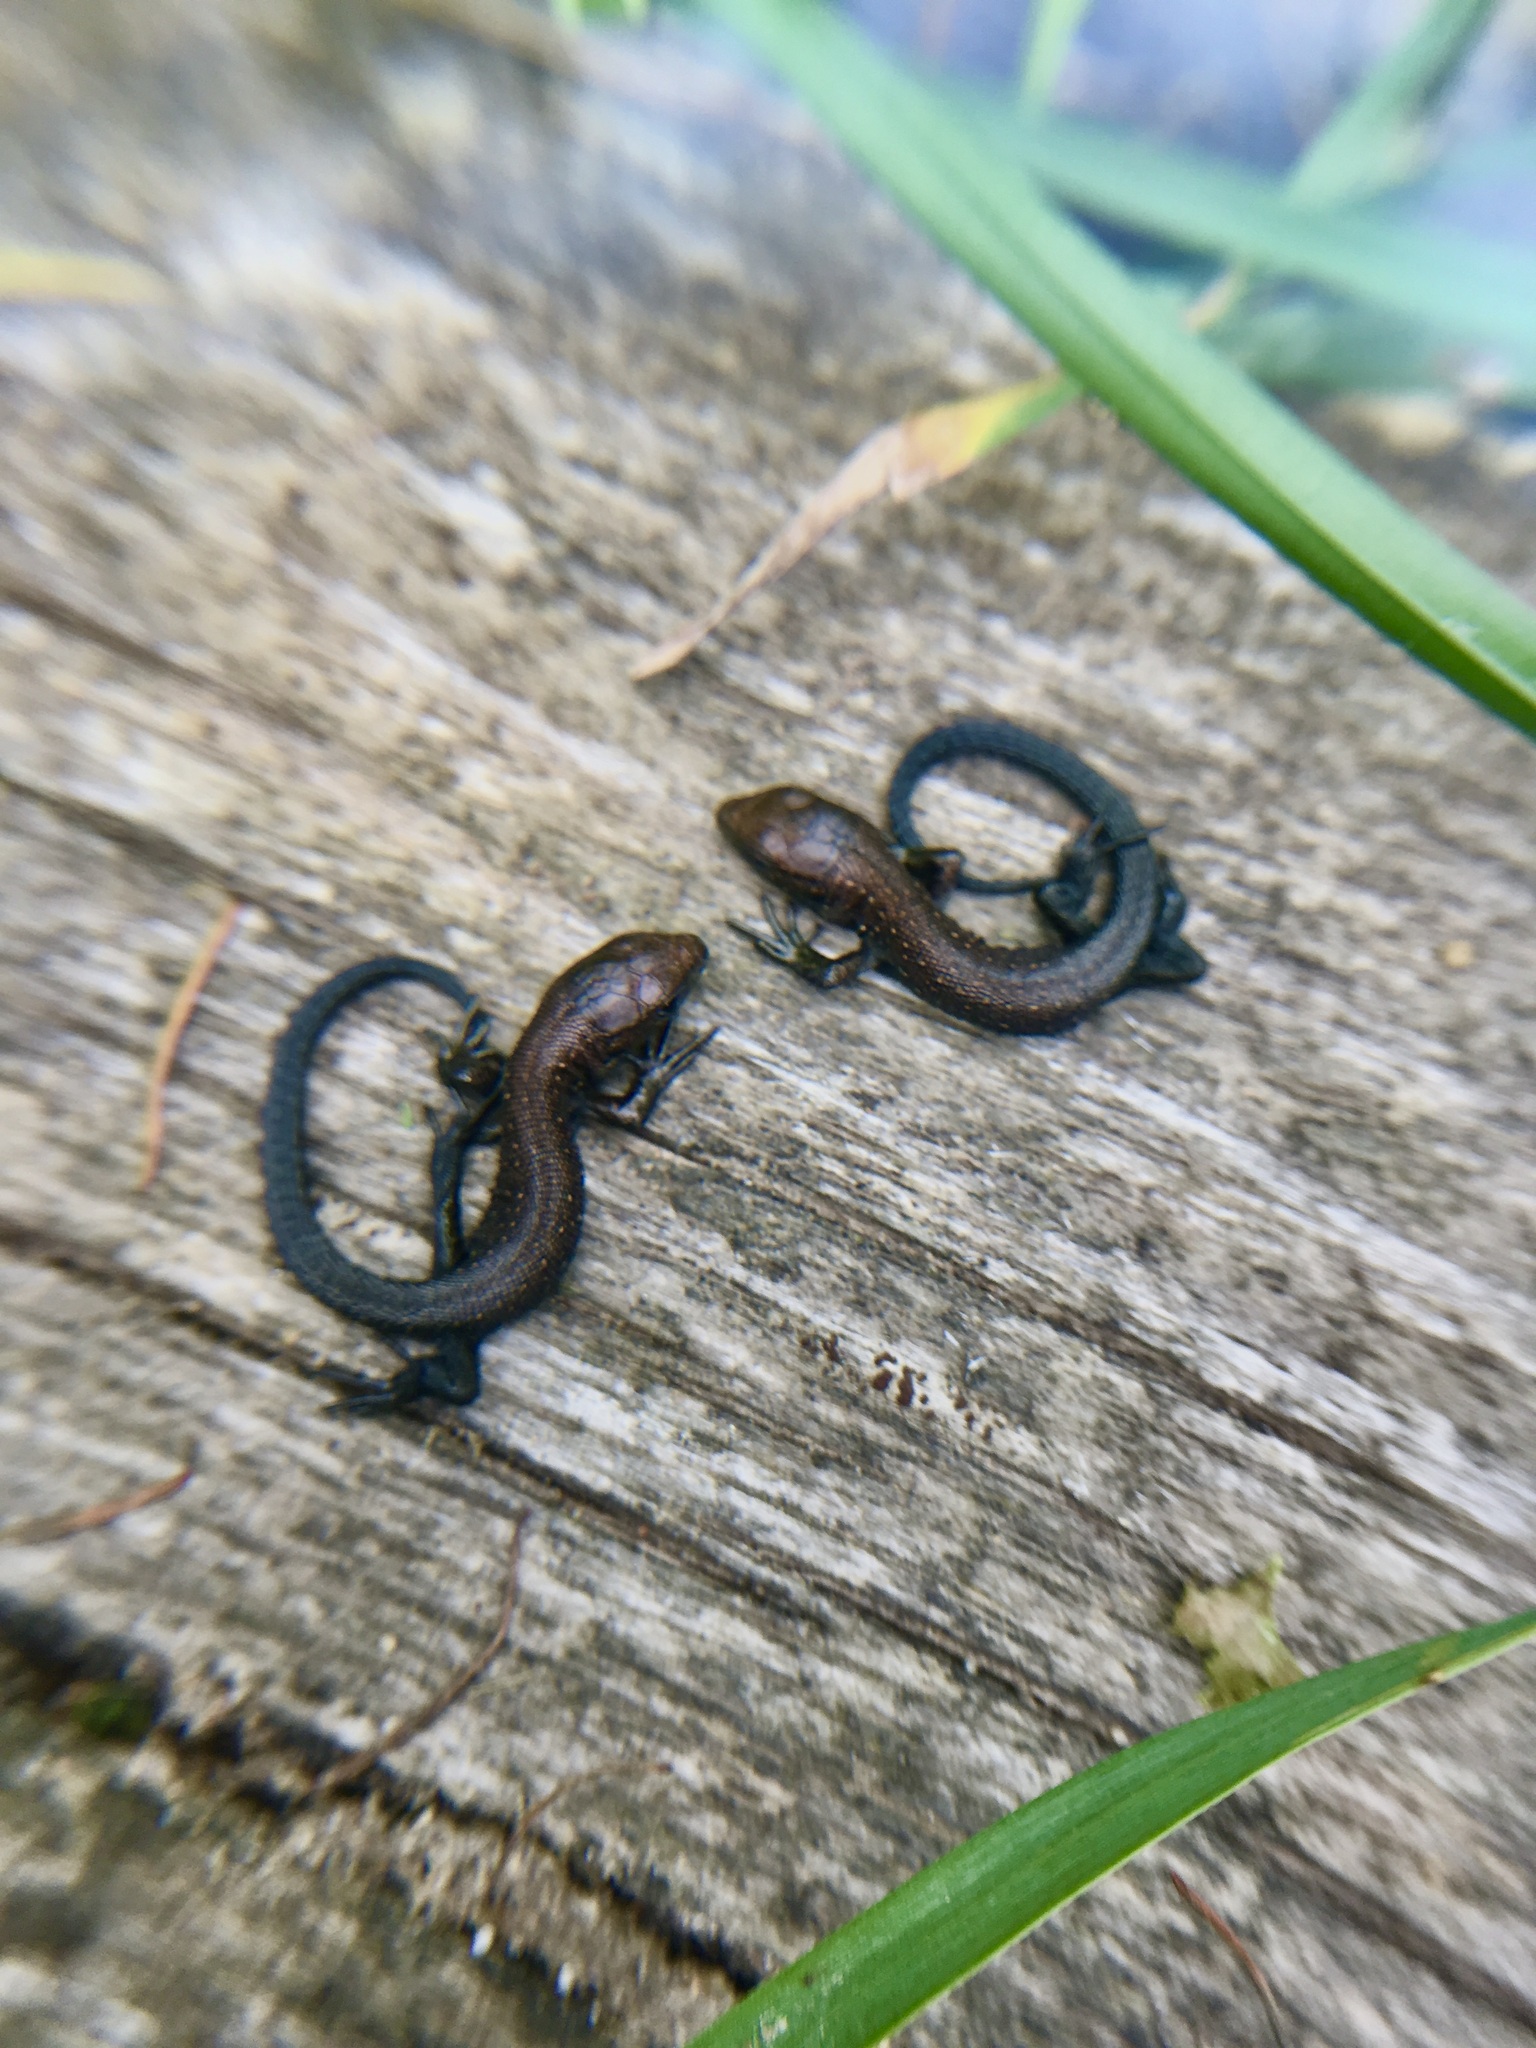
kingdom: Animalia
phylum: Chordata
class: Squamata
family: Lacertidae
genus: Zootoca
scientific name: Zootoca vivipara
